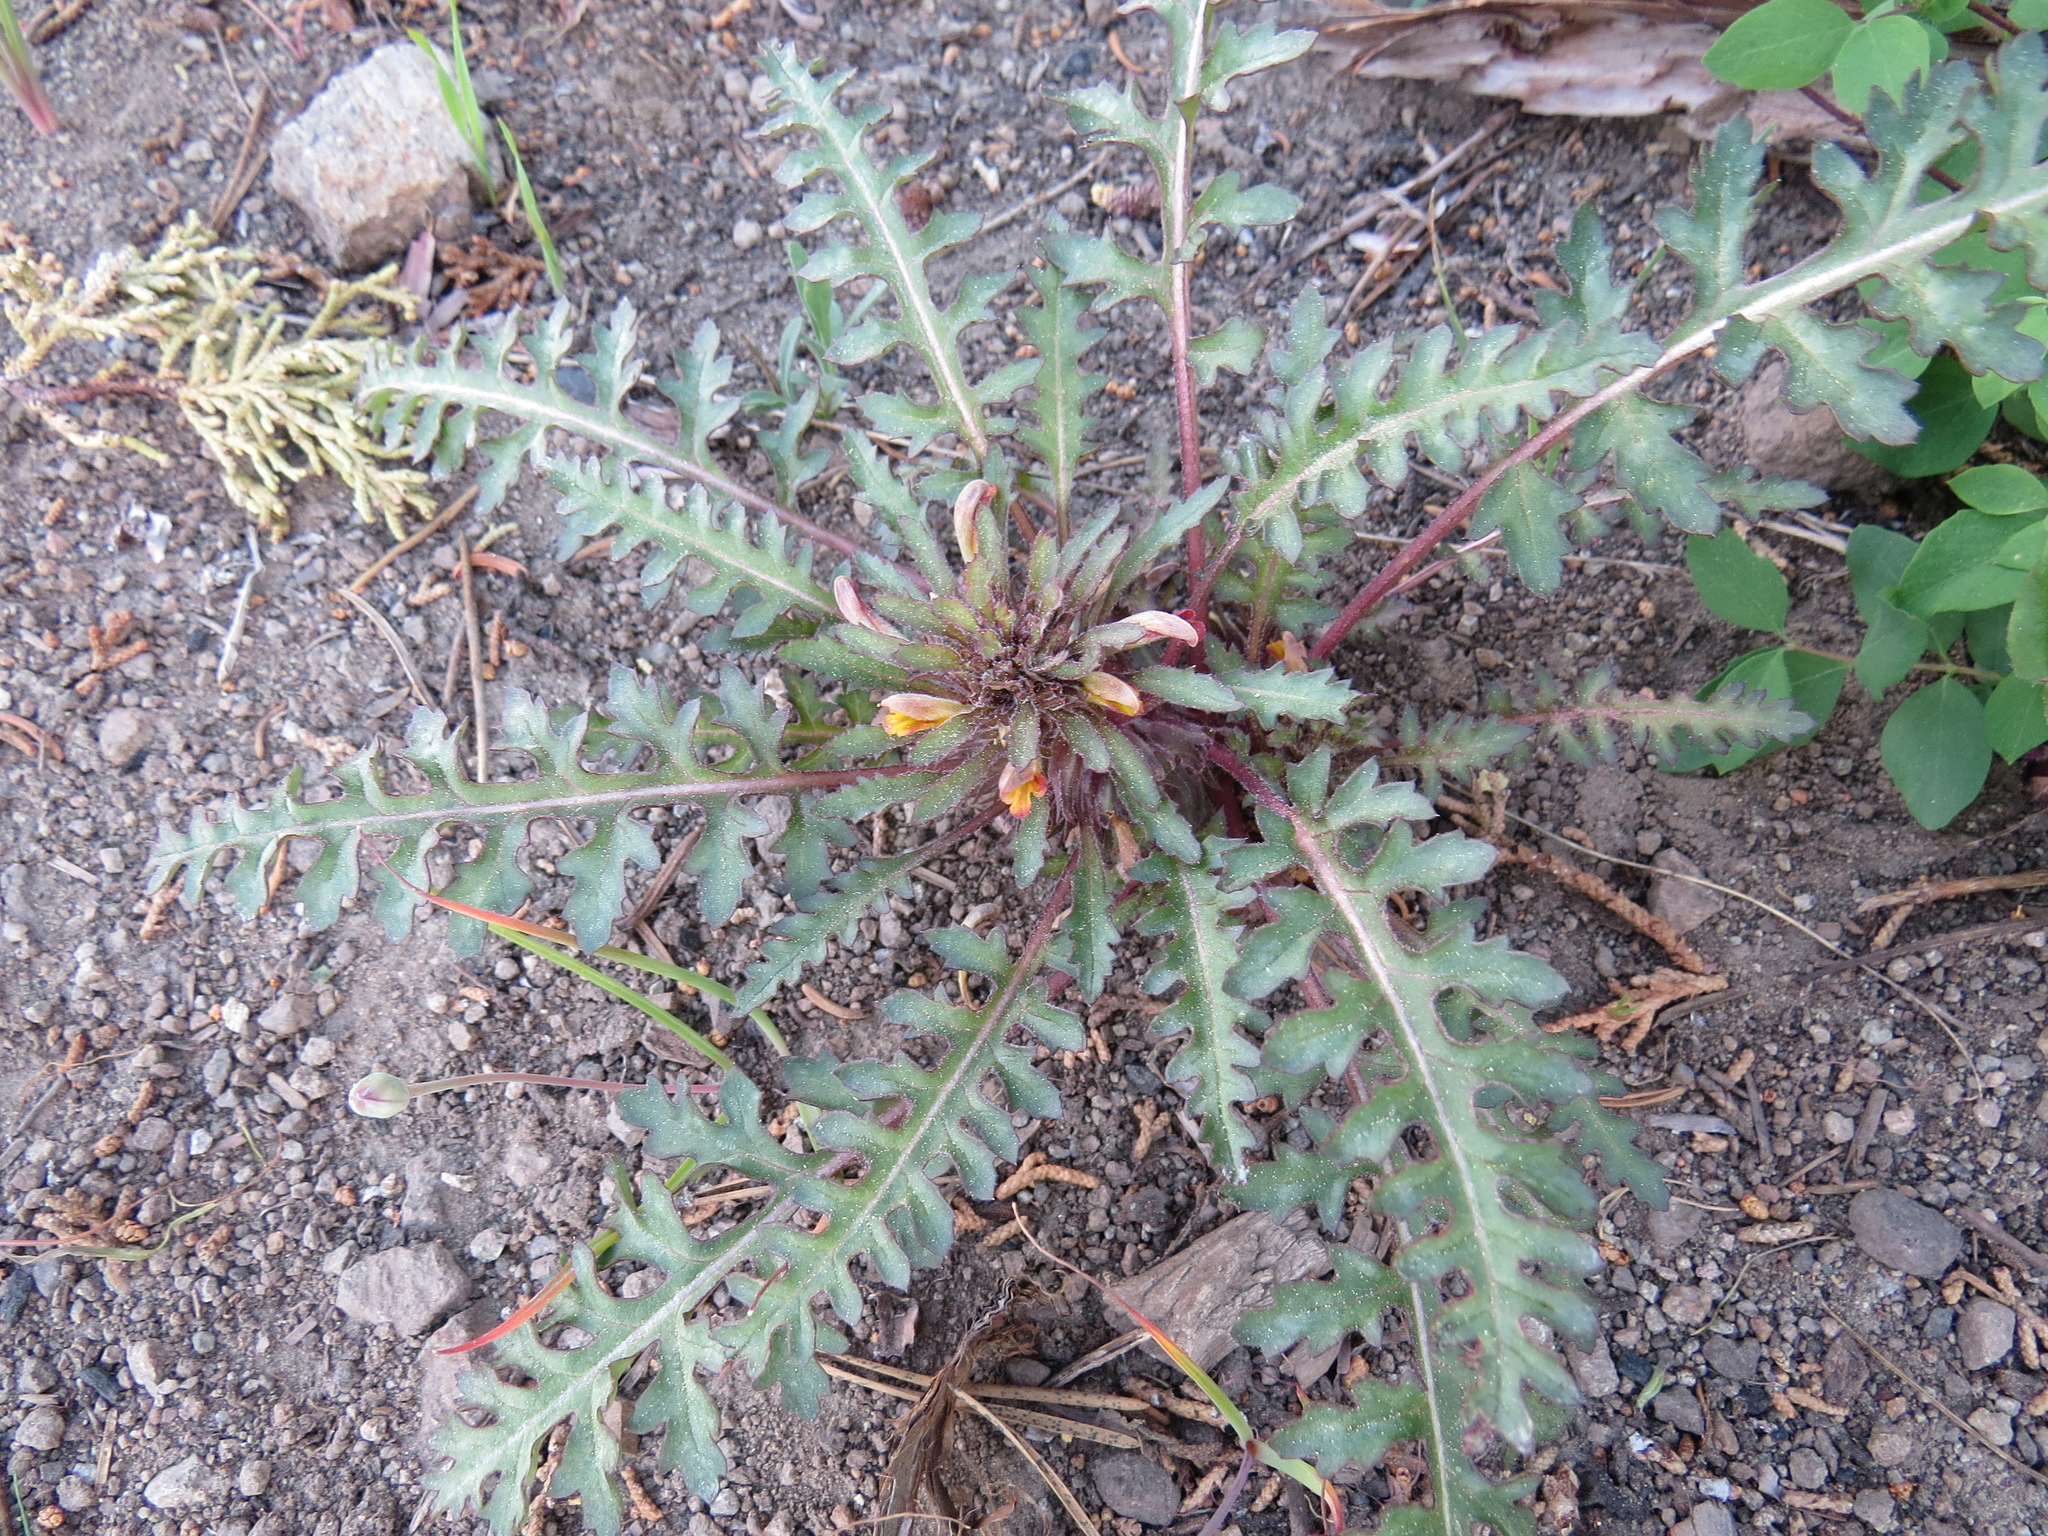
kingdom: Plantae
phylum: Tracheophyta
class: Magnoliopsida
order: Lamiales
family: Orobanchaceae
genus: Pedicularis
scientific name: Pedicularis semibarbata
